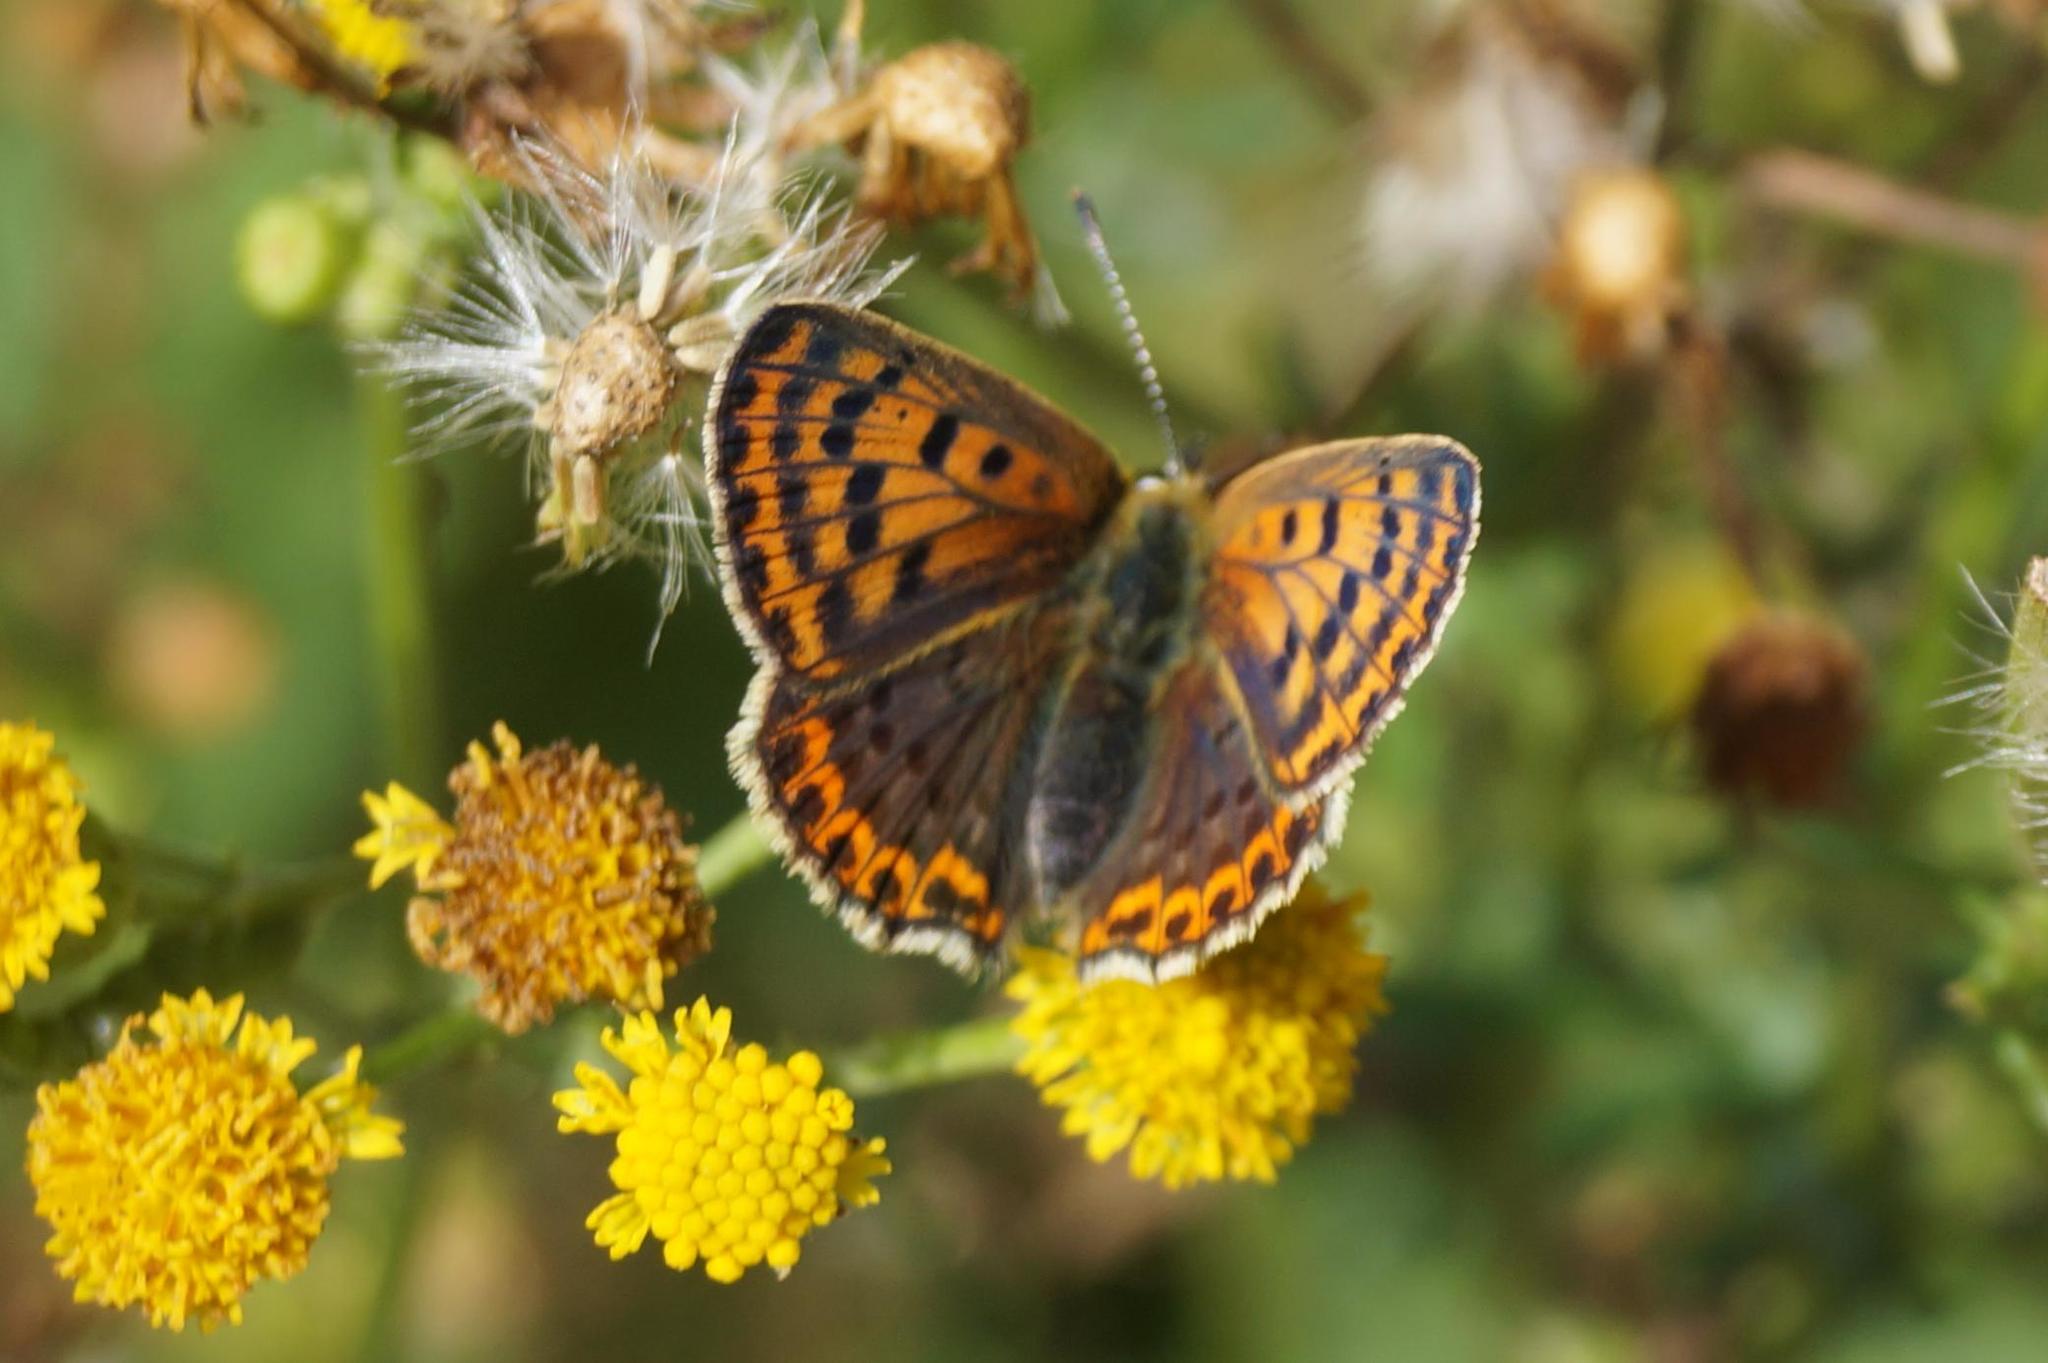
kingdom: Animalia
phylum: Arthropoda
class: Insecta
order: Lepidoptera
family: Lycaenidae
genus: Loweia
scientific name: Loweia tityrus
